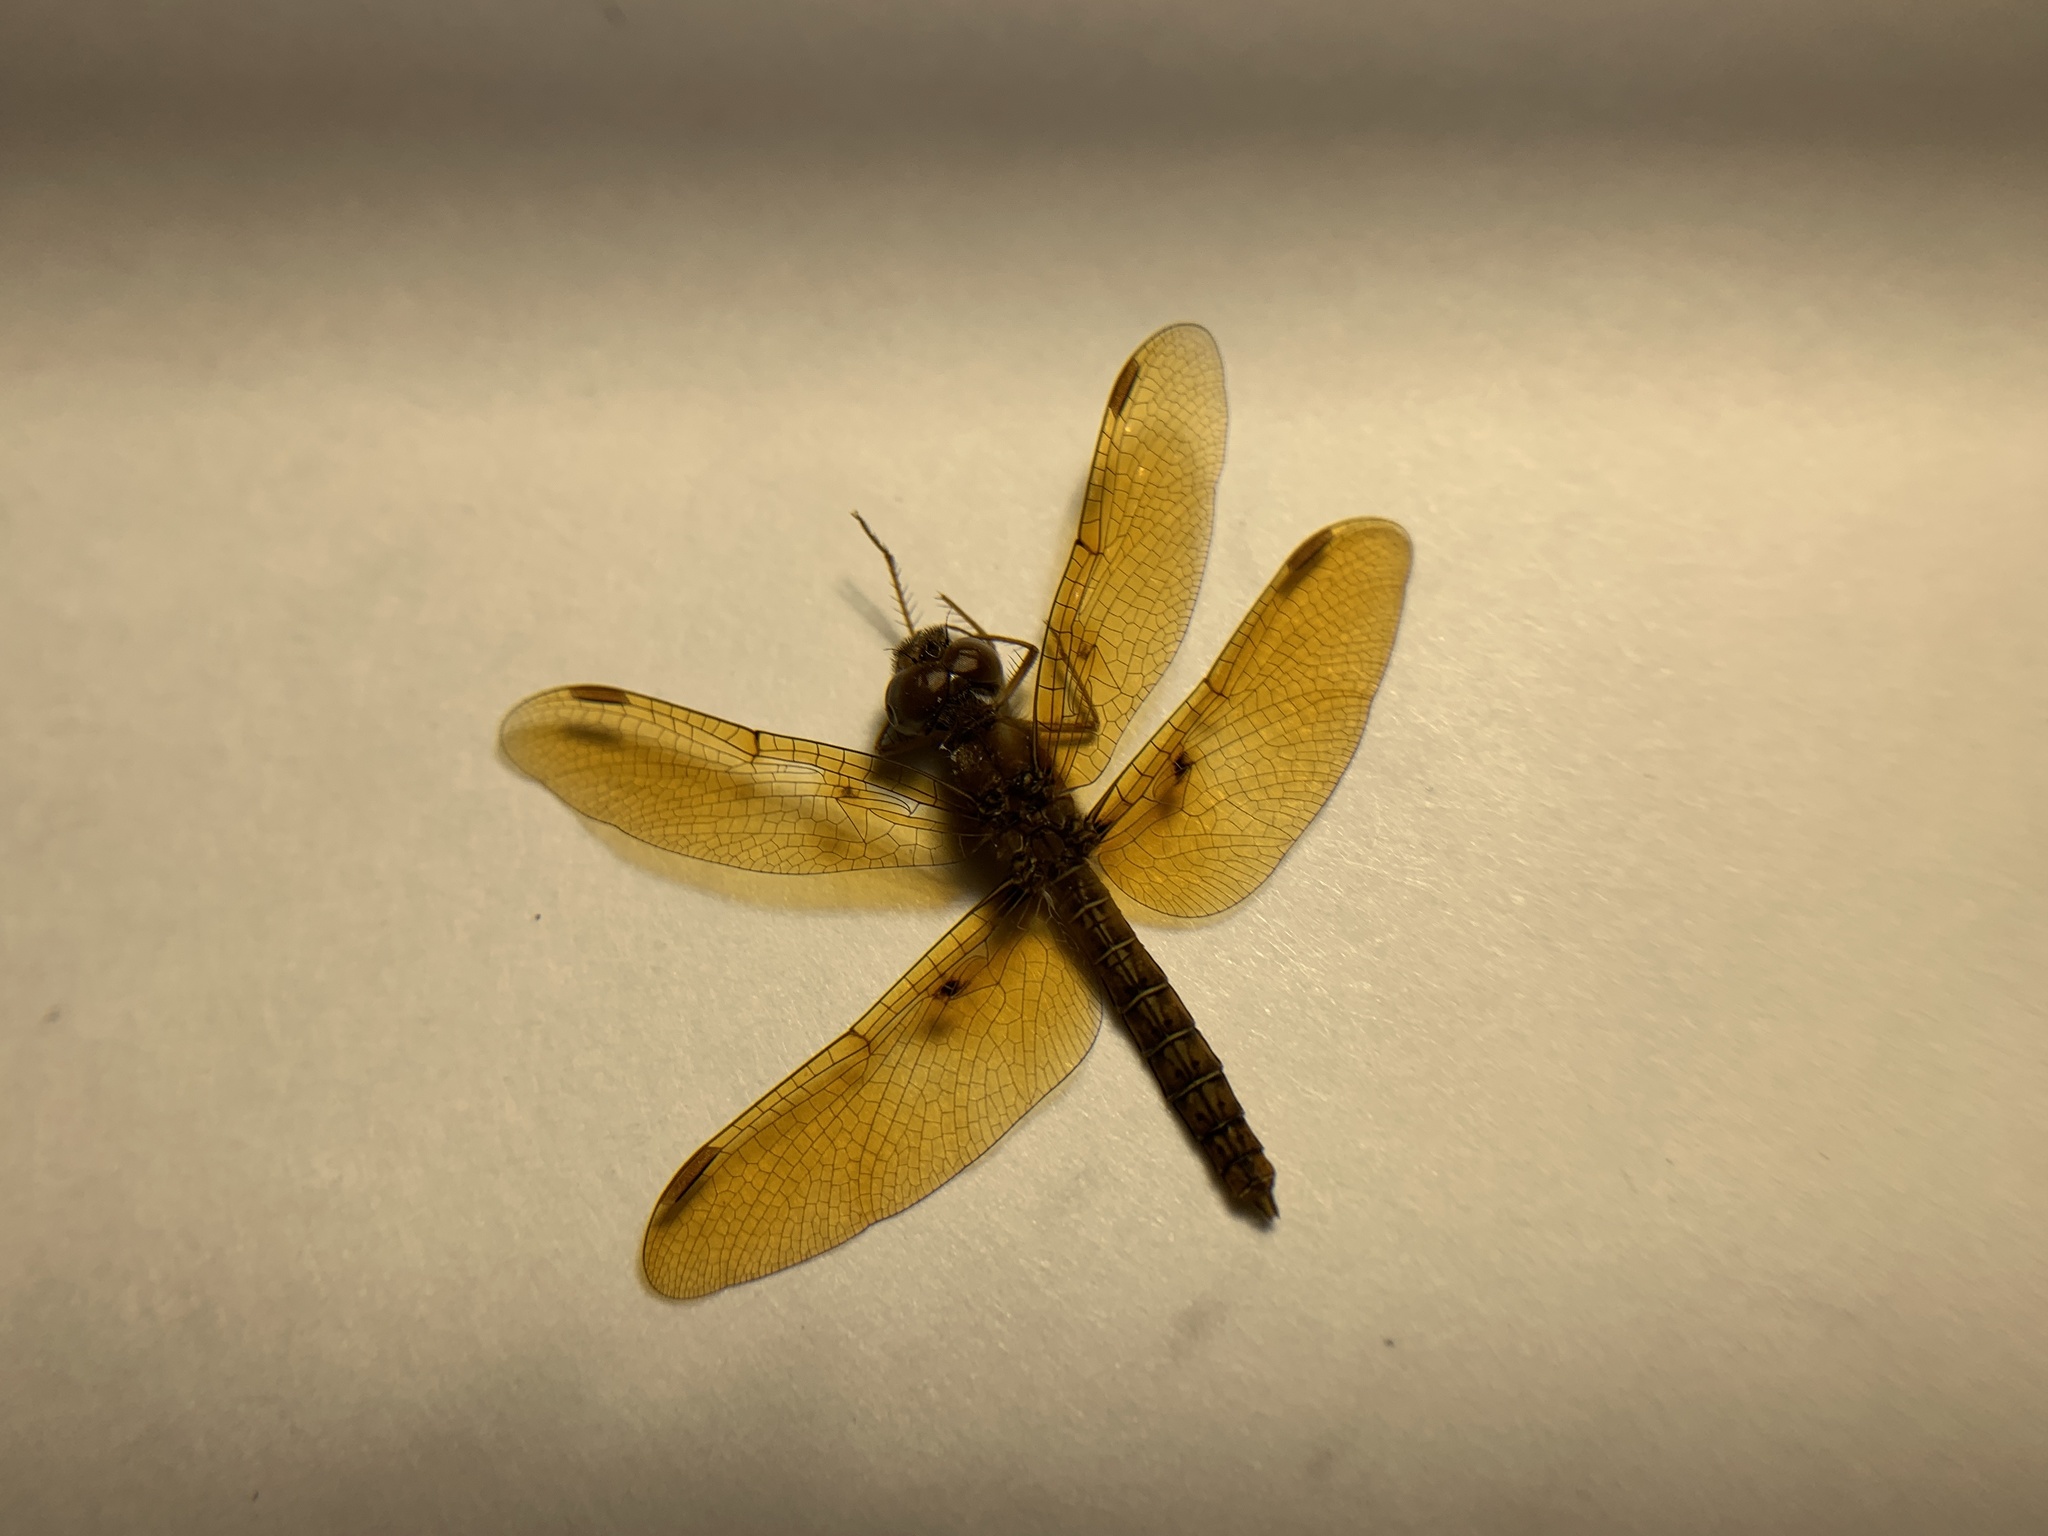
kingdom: Animalia
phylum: Arthropoda
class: Insecta
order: Odonata
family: Libellulidae
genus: Perithemis
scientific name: Perithemis tenera
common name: Eastern amberwing
